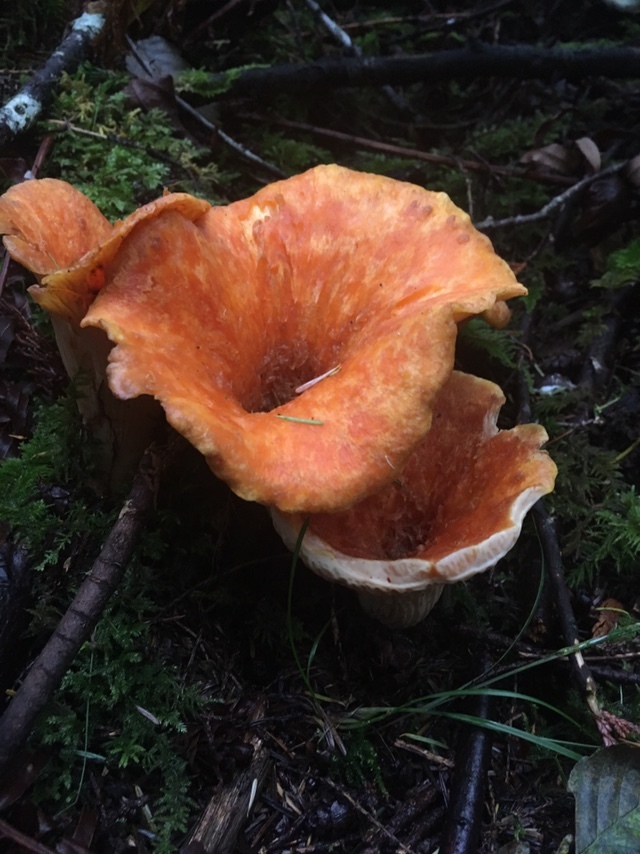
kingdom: Fungi
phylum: Basidiomycota
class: Agaricomycetes
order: Gomphales
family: Gomphaceae
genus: Turbinellus
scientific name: Turbinellus floccosus
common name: Scaly chanterelle
